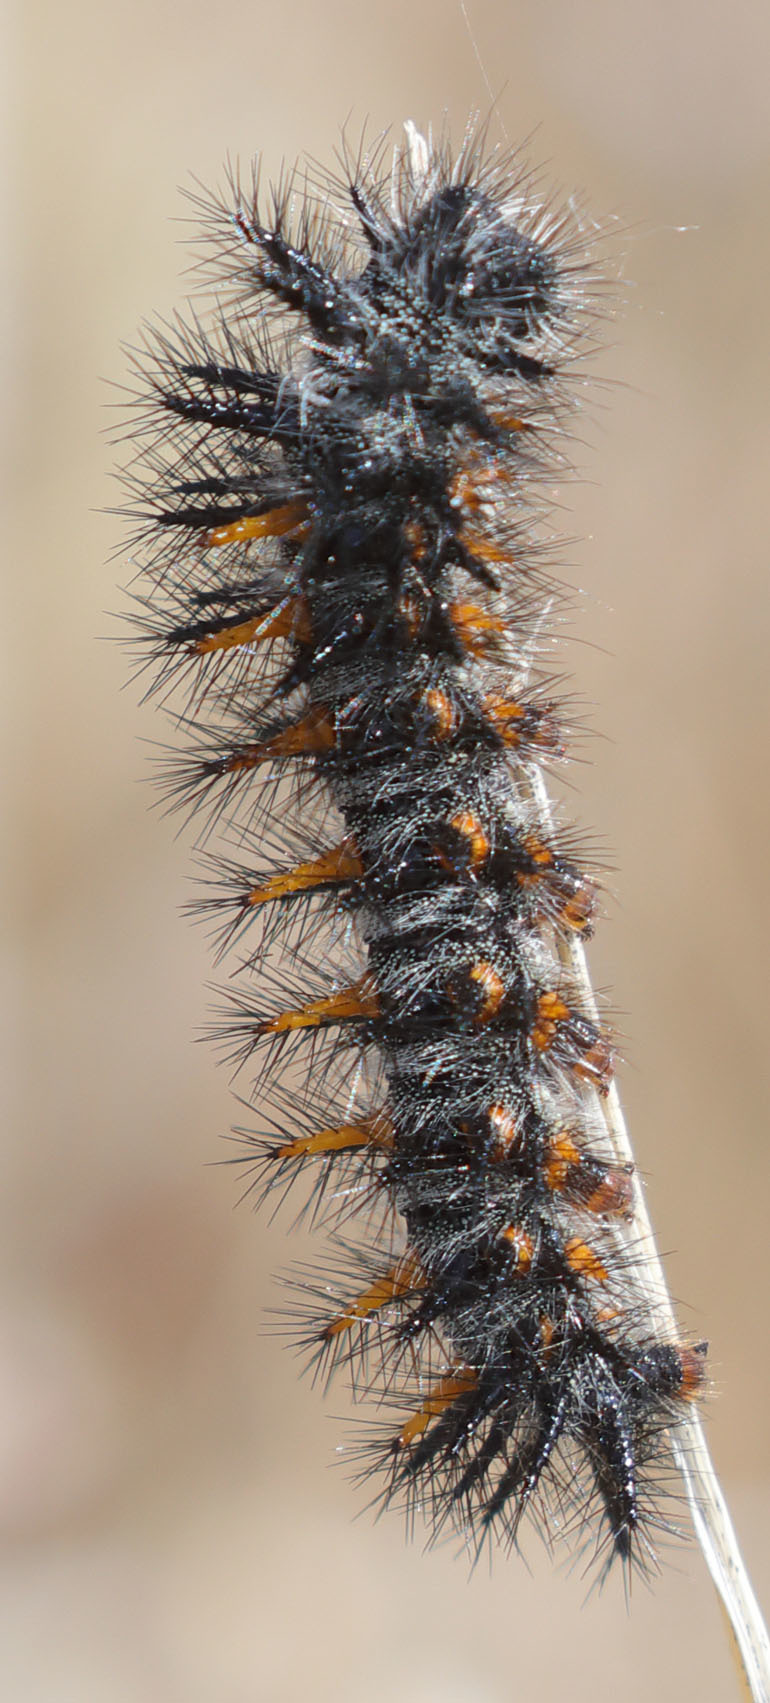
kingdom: Animalia
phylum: Arthropoda
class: Insecta
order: Lepidoptera
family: Nymphalidae
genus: Occidryas
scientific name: Occidryas chalcedona
